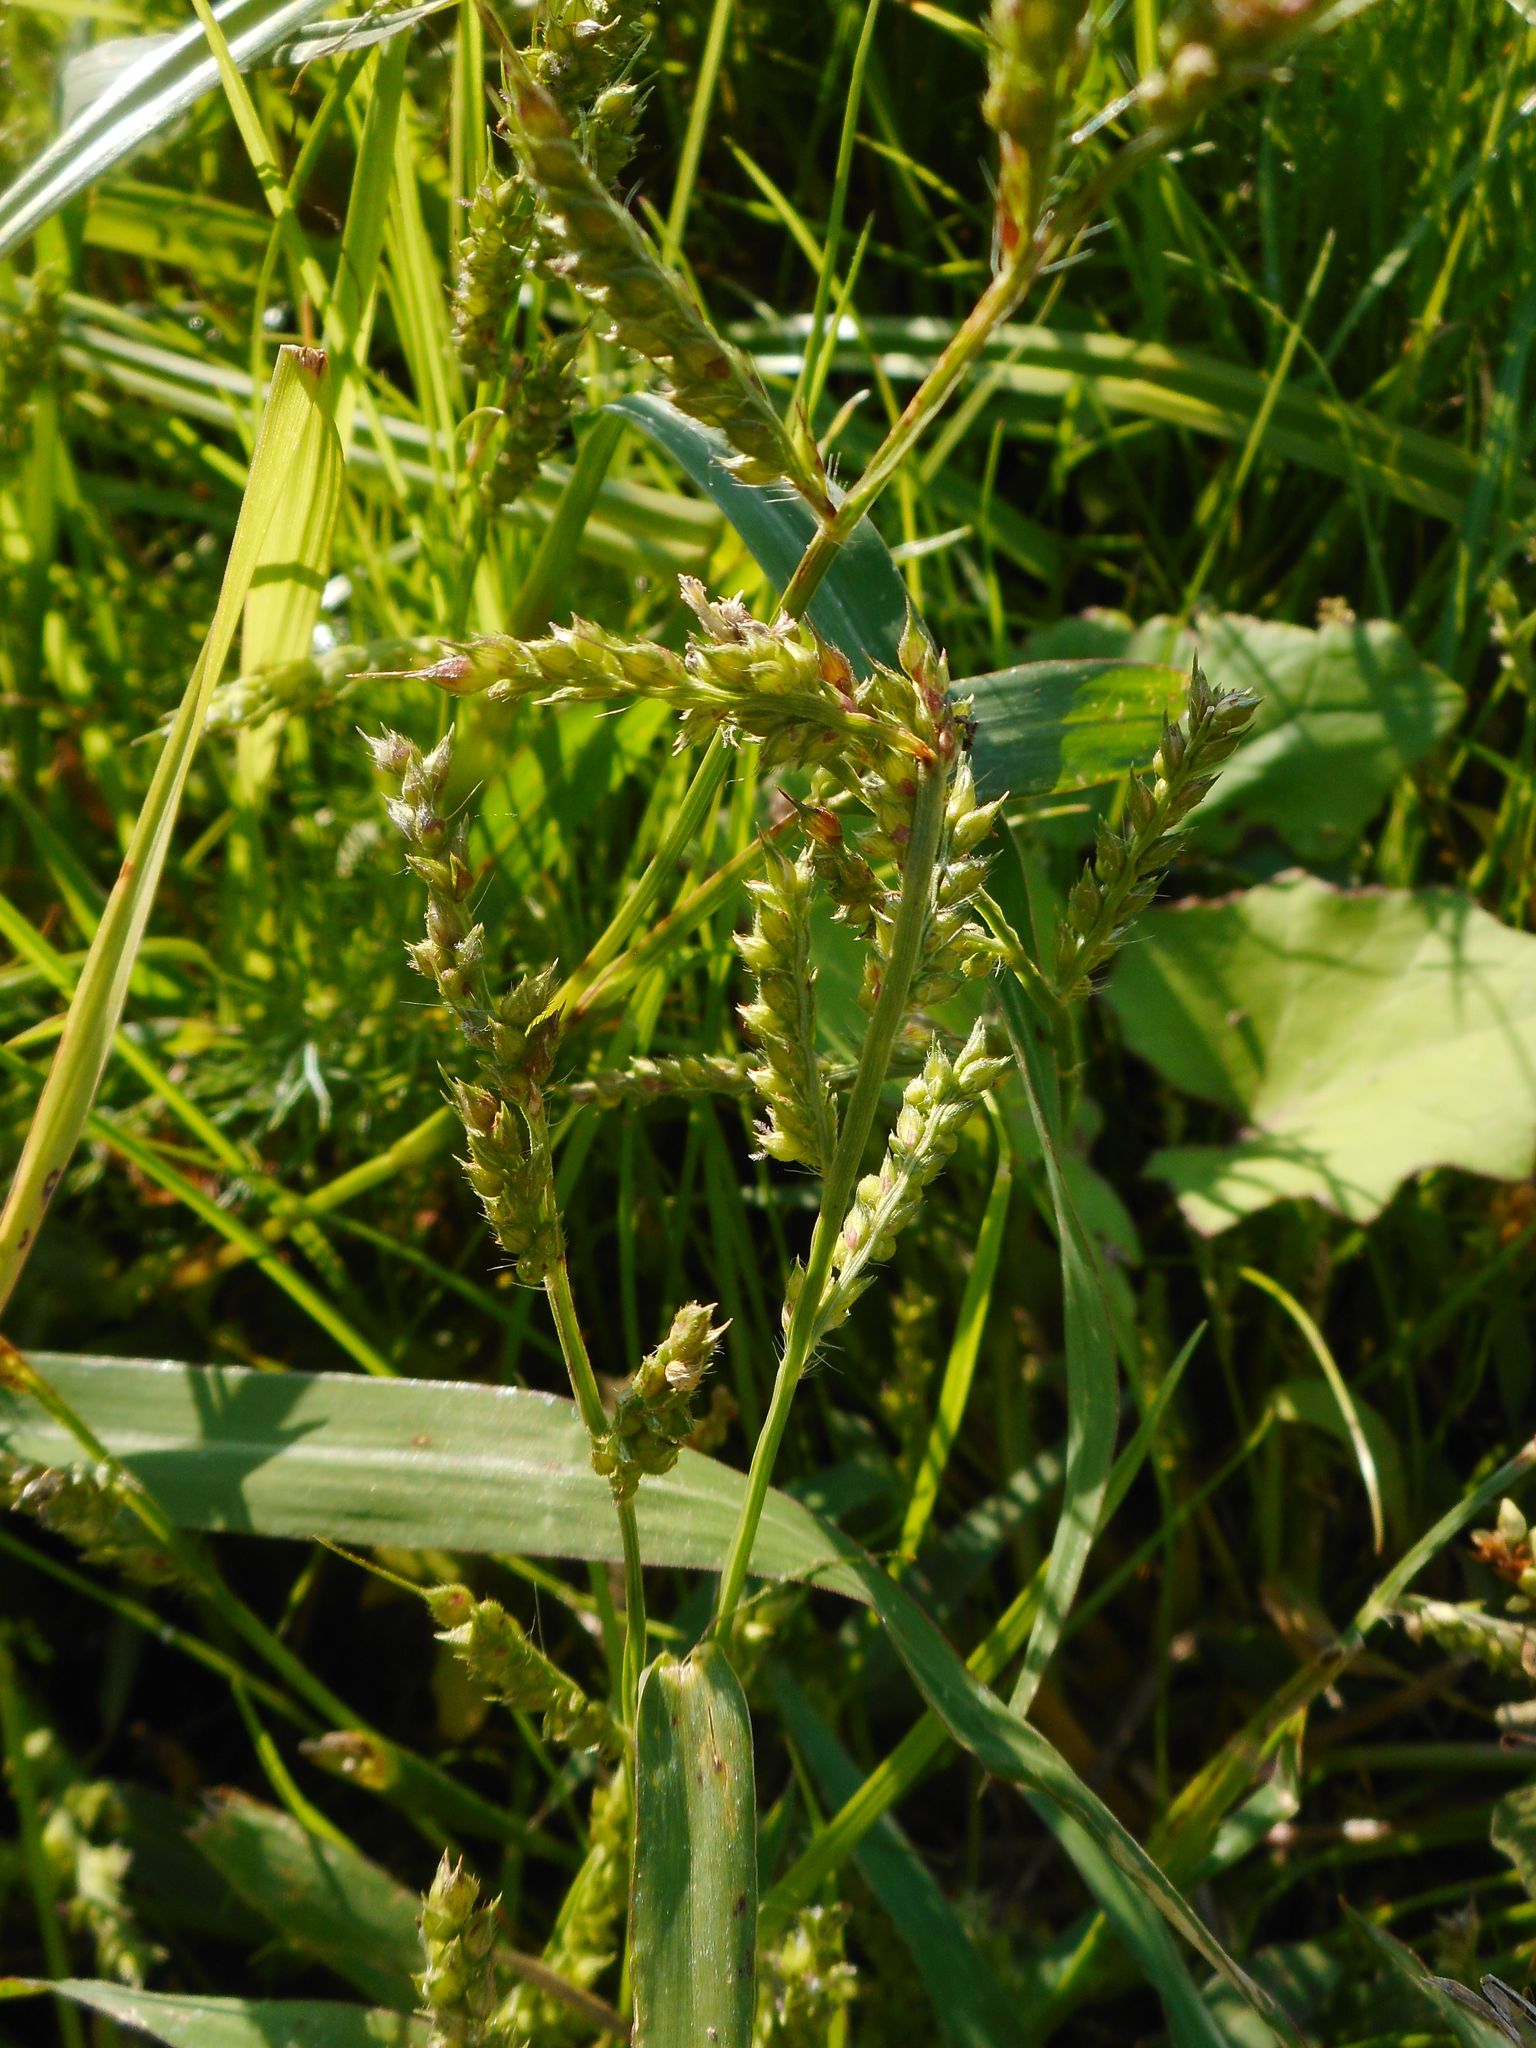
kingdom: Plantae
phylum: Tracheophyta
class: Liliopsida
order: Poales
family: Poaceae
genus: Echinochloa
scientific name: Echinochloa crus-galli
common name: Cockspur
